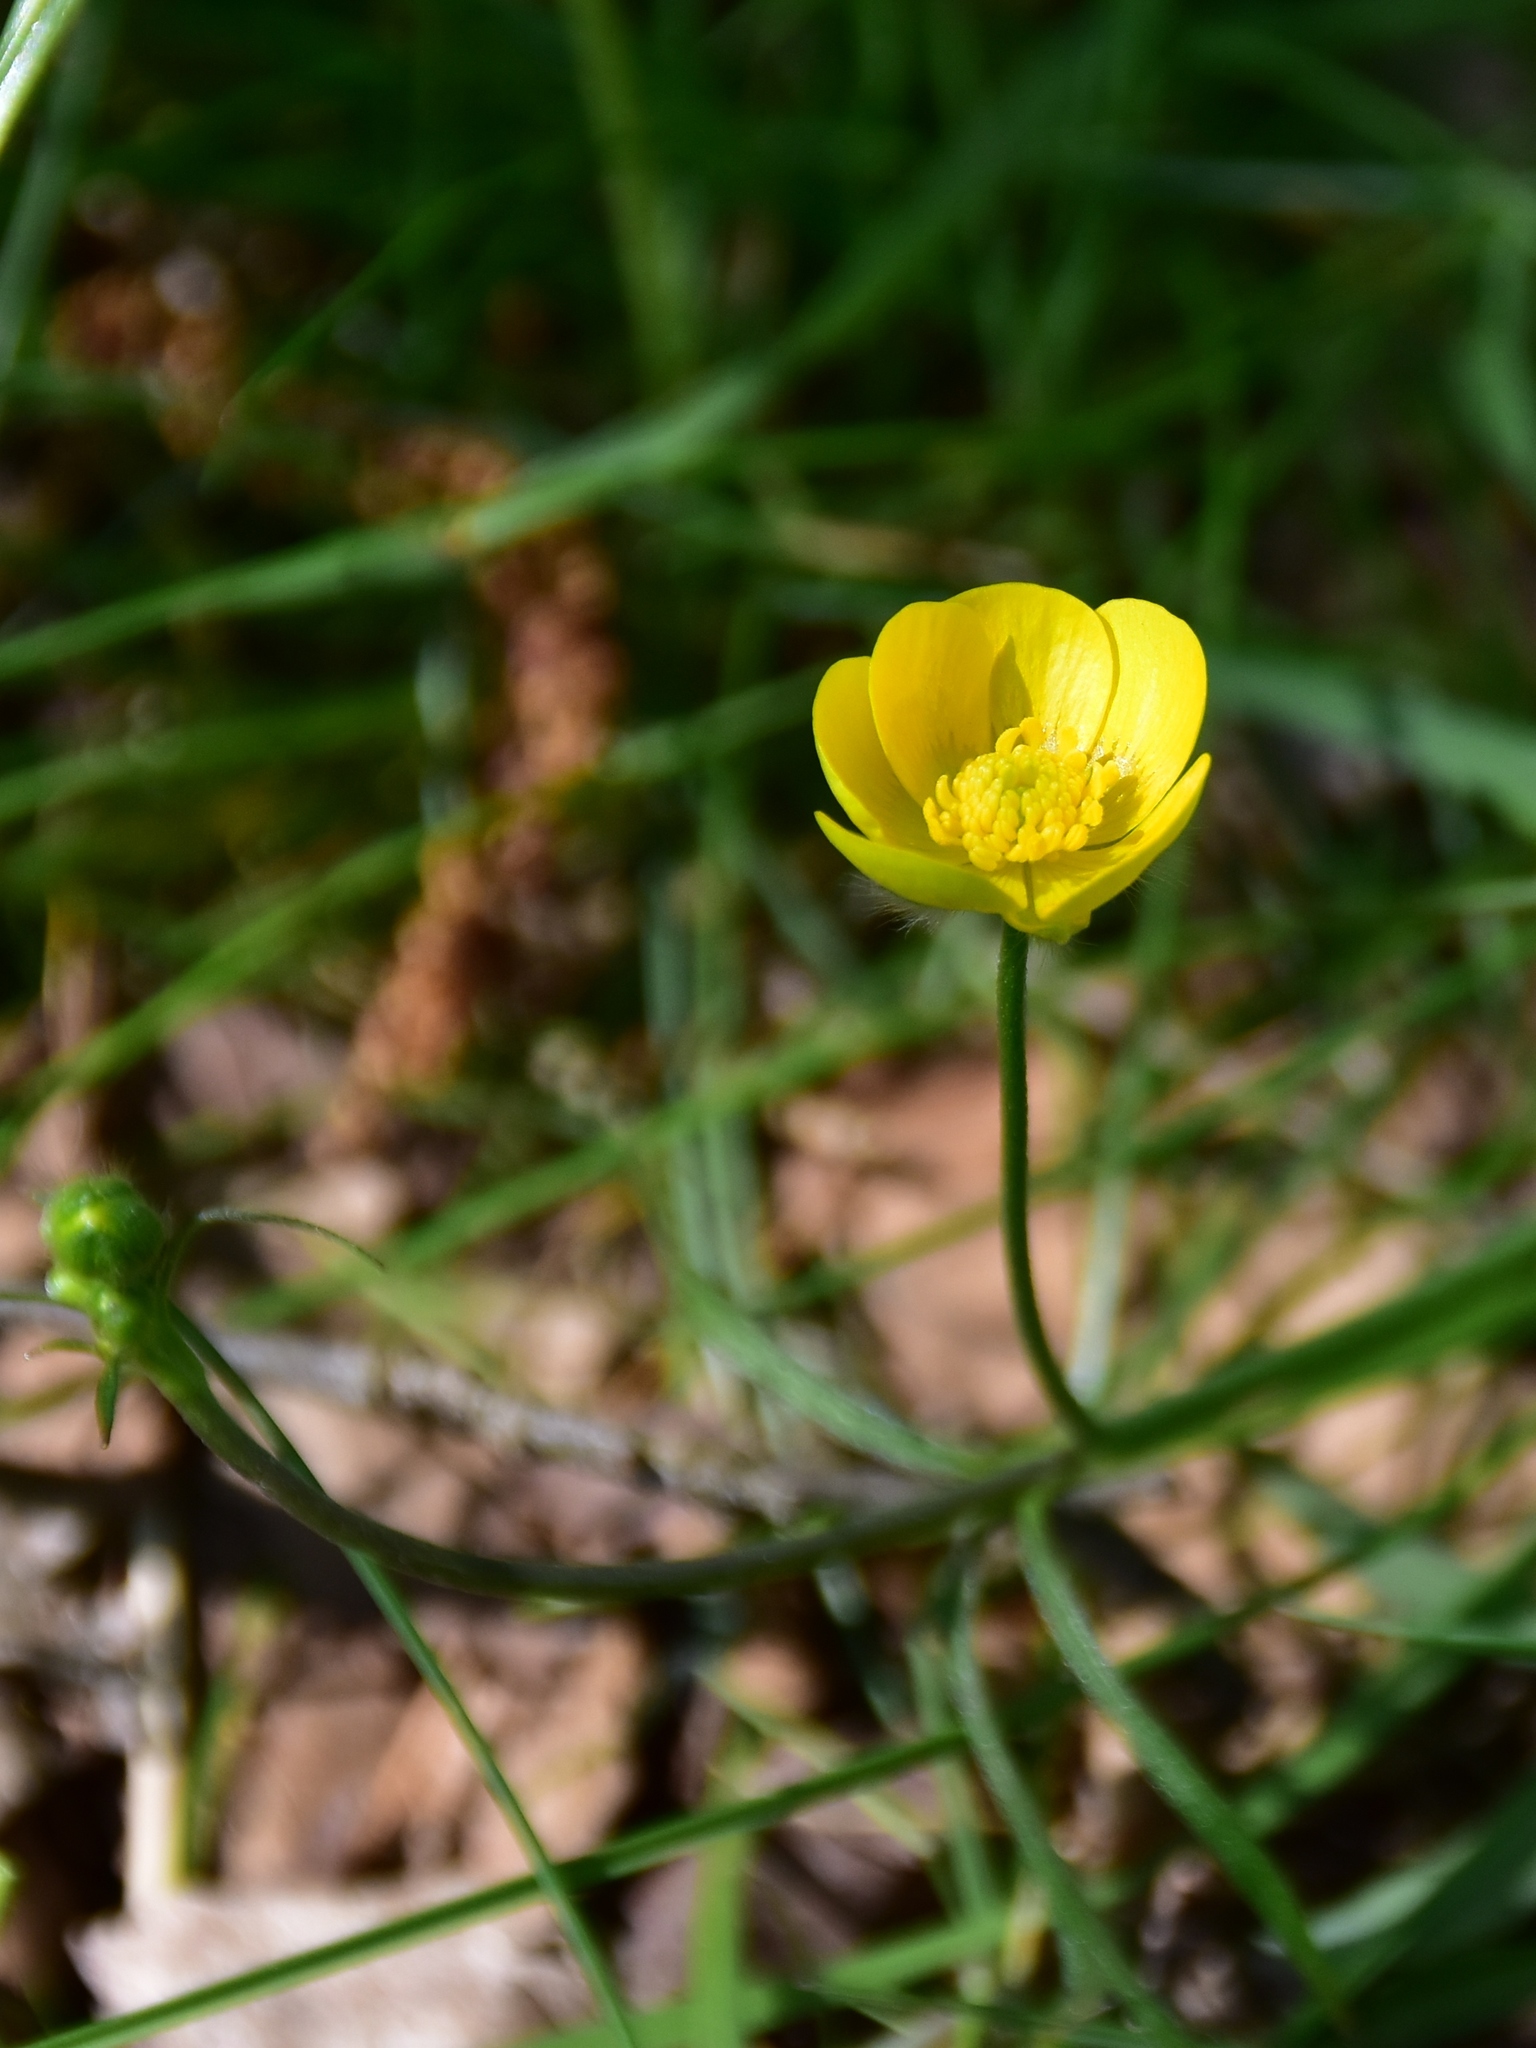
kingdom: Plantae
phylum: Tracheophyta
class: Magnoliopsida
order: Ranunculales
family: Ranunculaceae
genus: Ranunculus
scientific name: Ranunculus acris
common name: Meadow buttercup
